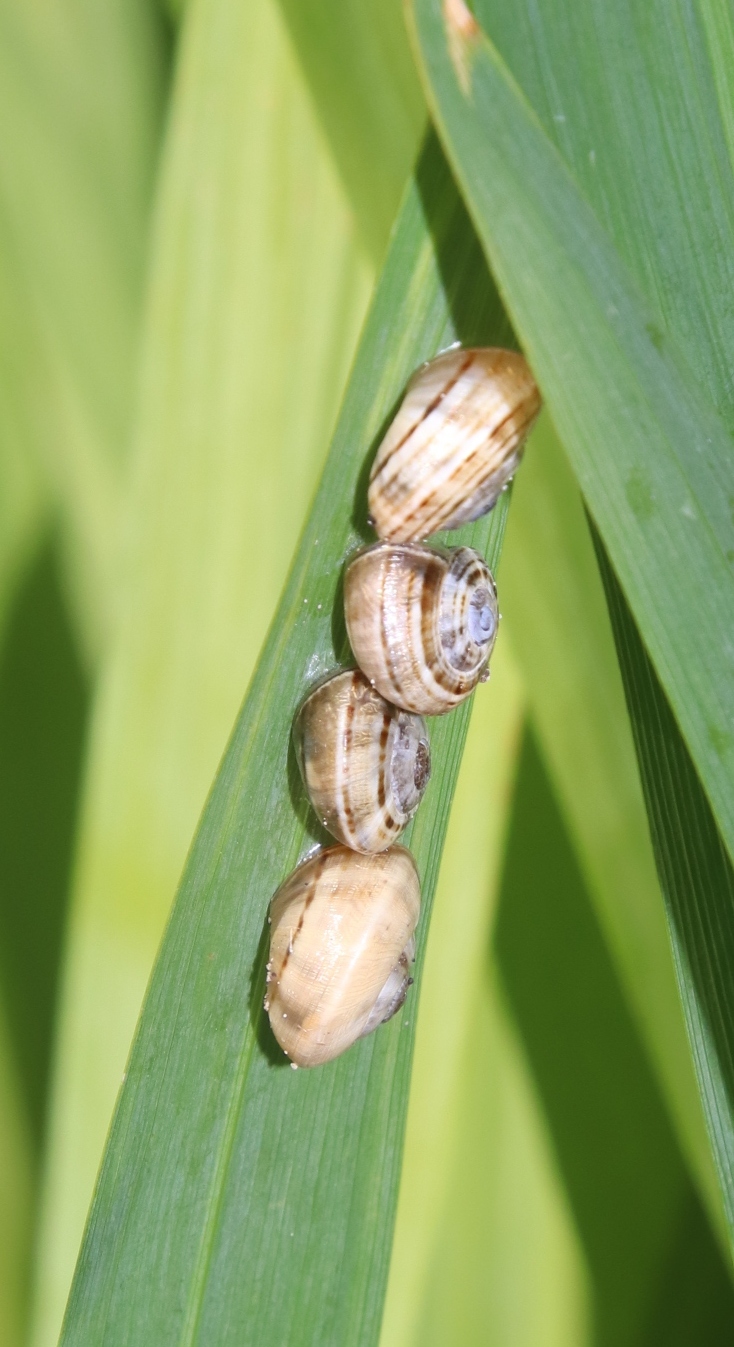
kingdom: Animalia
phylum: Mollusca
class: Gastropoda
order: Stylommatophora
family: Helicidae
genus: Theba
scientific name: Theba pisana
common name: White snail
